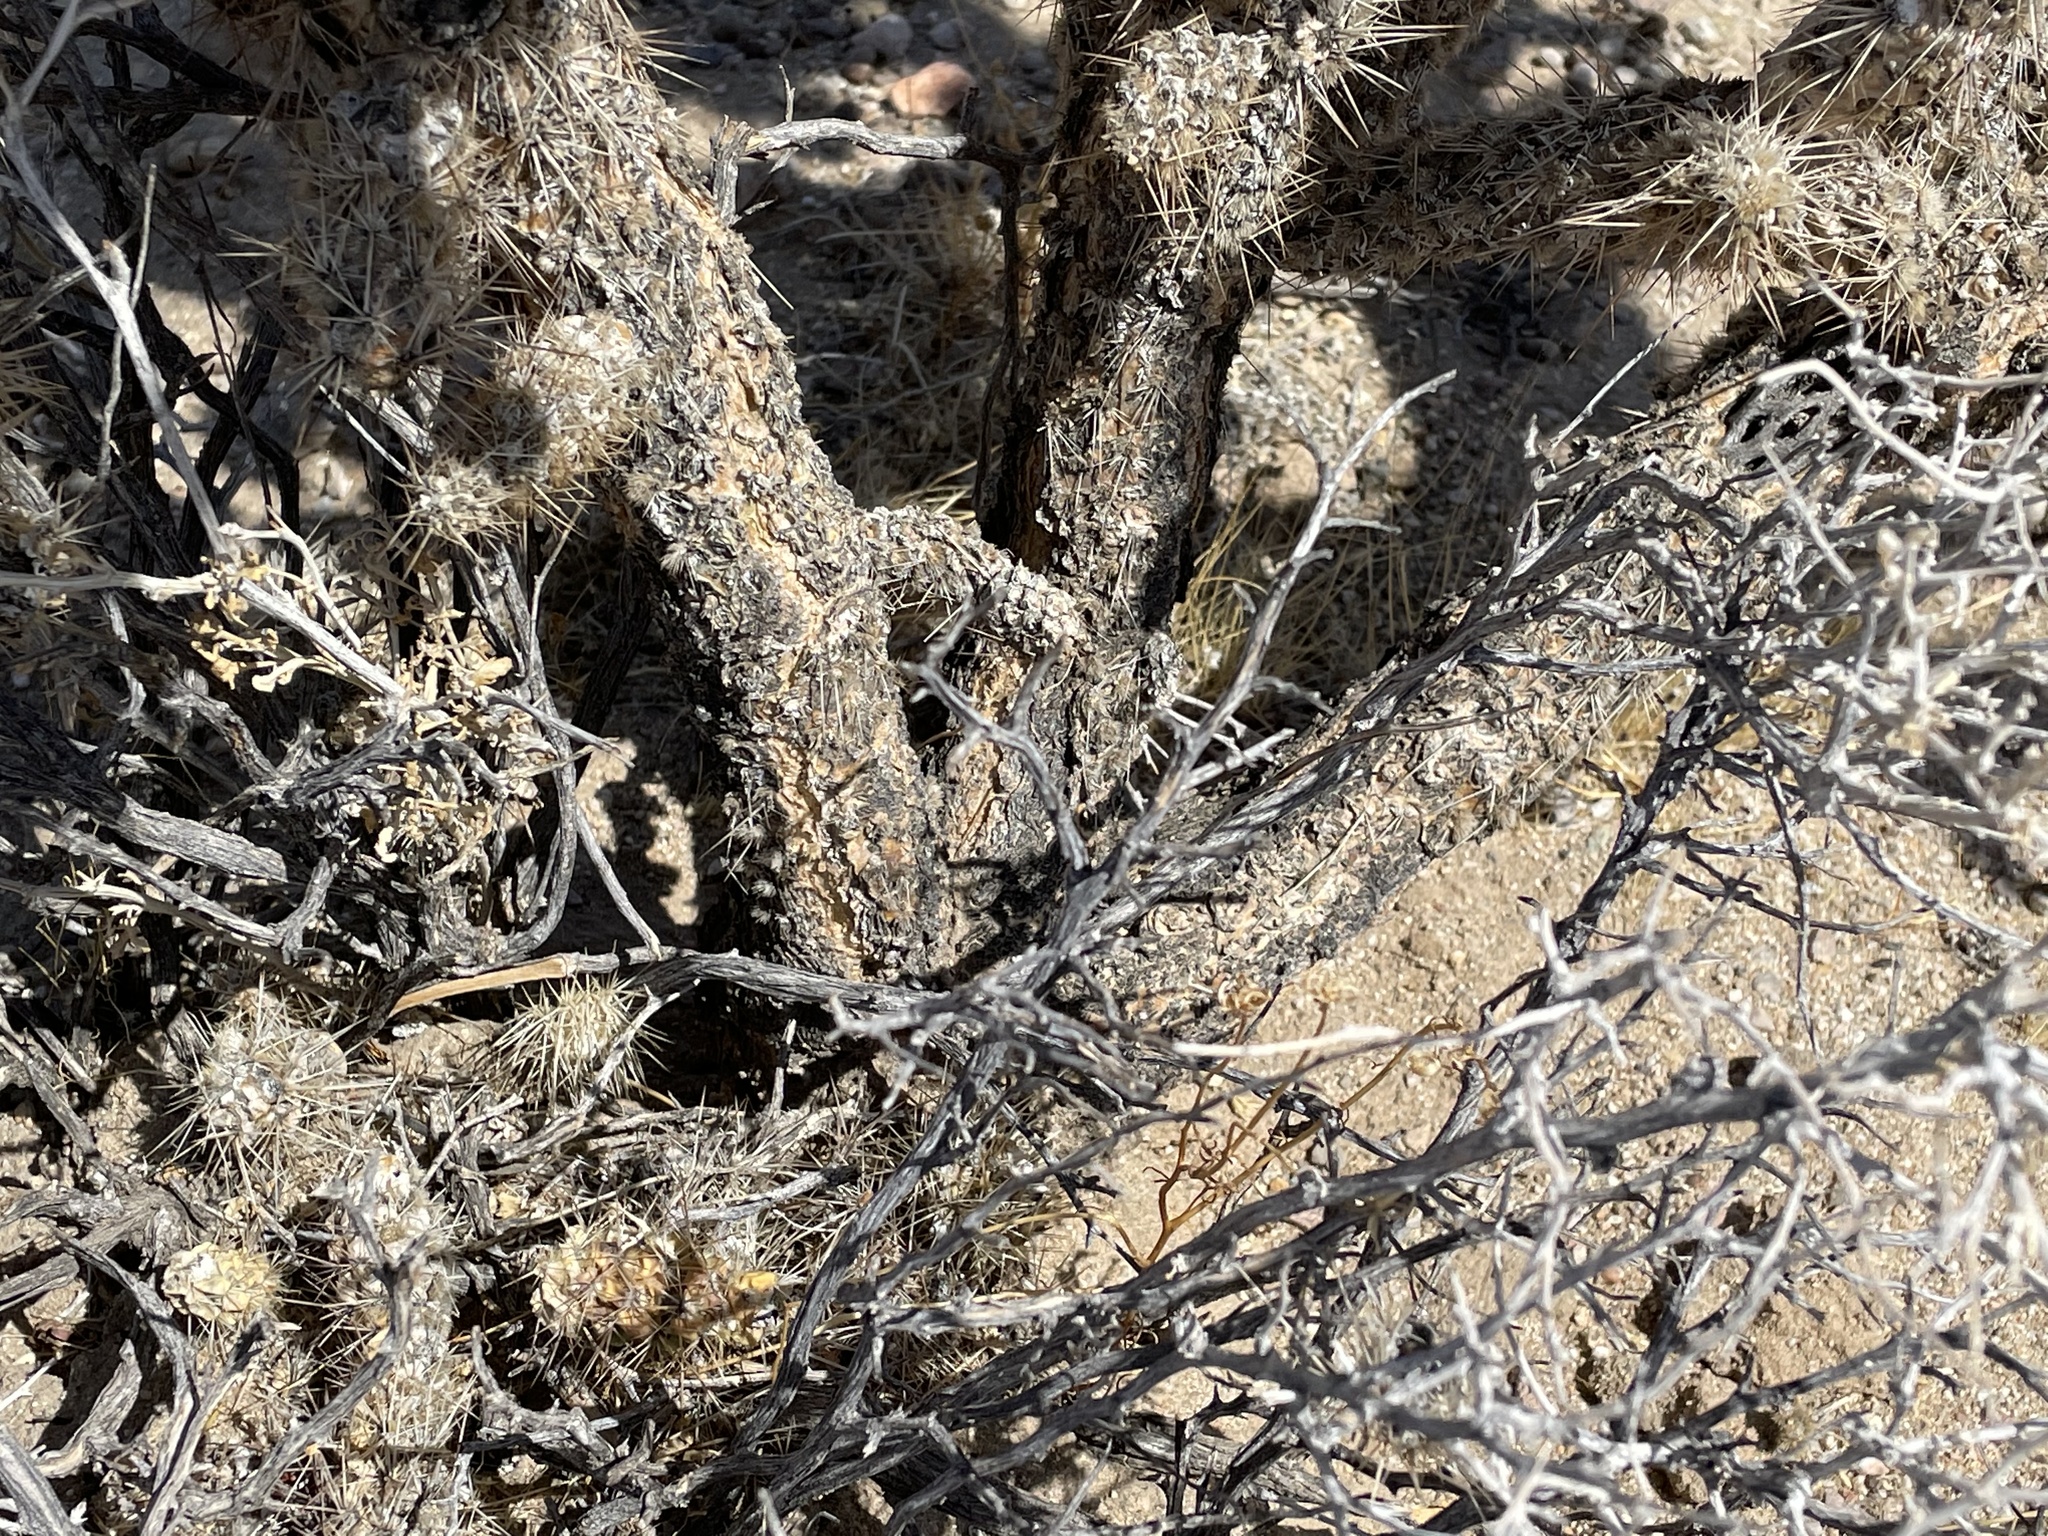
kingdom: Plantae
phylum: Tracheophyta
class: Magnoliopsida
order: Caryophyllales
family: Cactaceae
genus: Cylindropuntia
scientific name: Cylindropuntia echinocarpa
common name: Ground cholla
